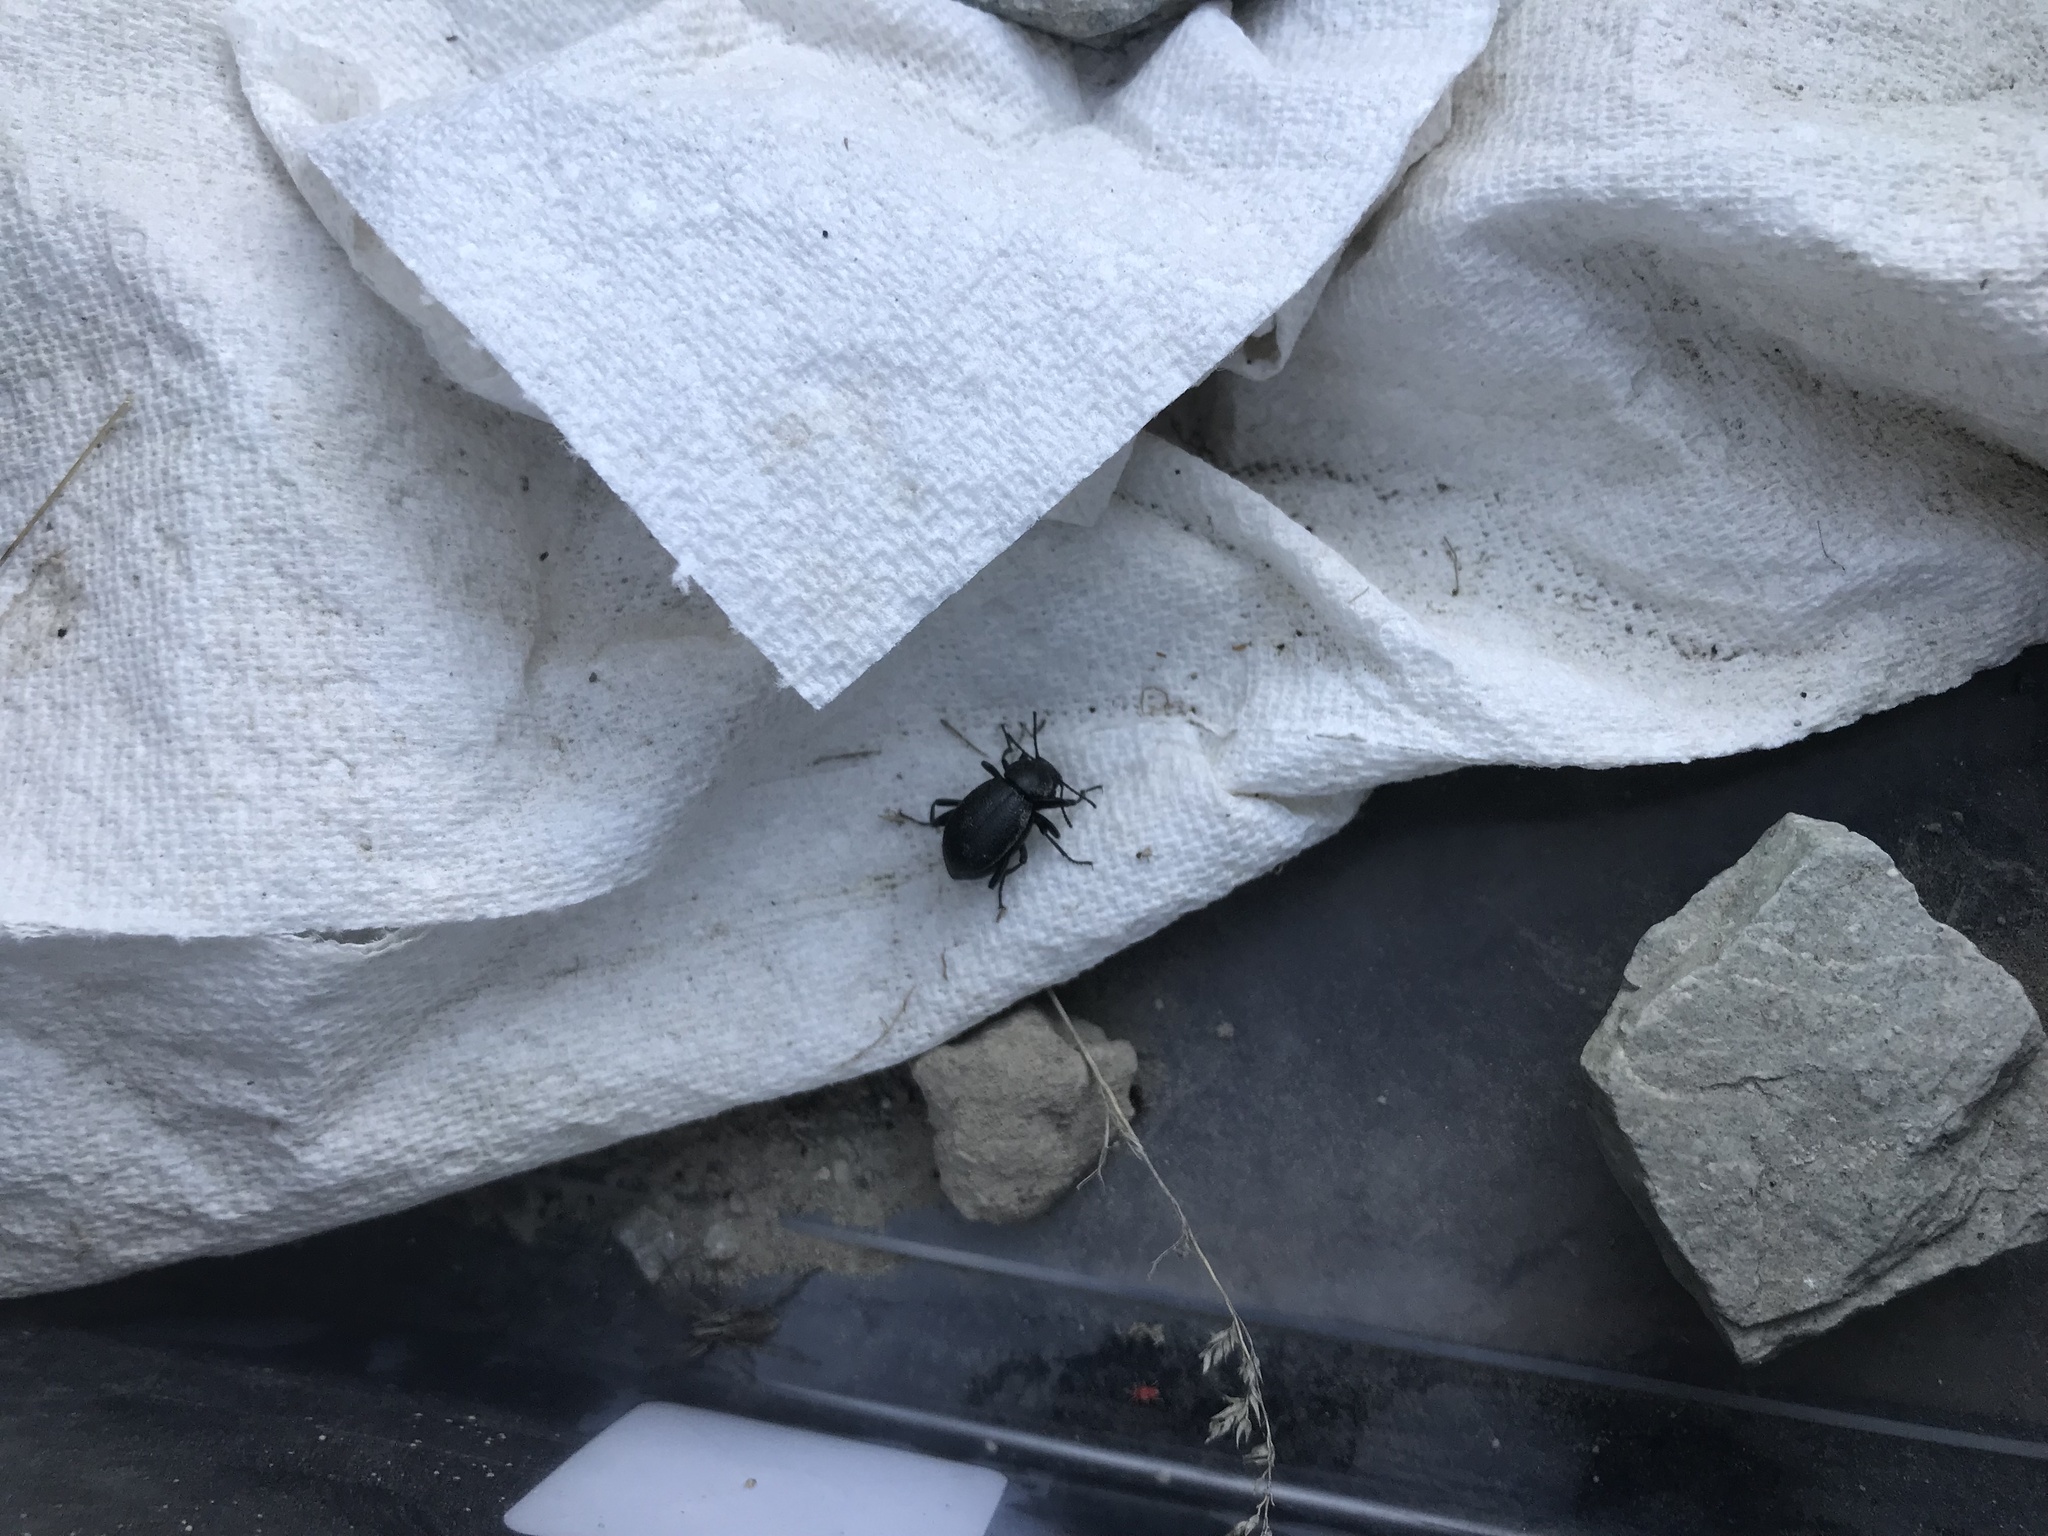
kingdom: Animalia
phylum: Arthropoda
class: Insecta
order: Coleoptera
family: Tenebrionidae
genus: Eleodes
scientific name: Eleodes granulata
